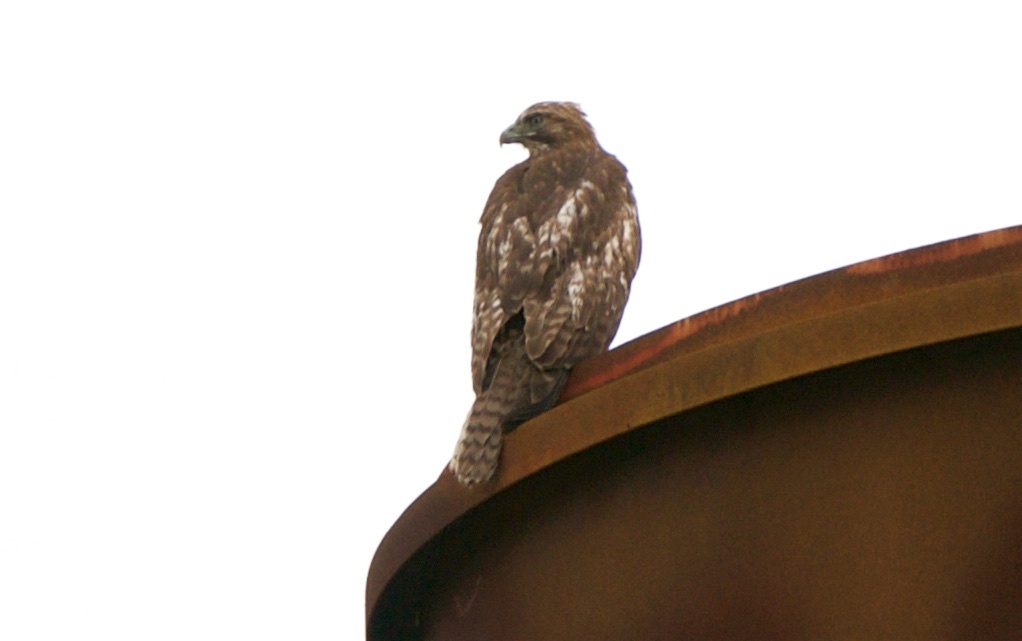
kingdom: Animalia
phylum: Chordata
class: Aves
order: Accipitriformes
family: Accipitridae
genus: Buteo
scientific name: Buteo jamaicensis
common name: Red-tailed hawk
